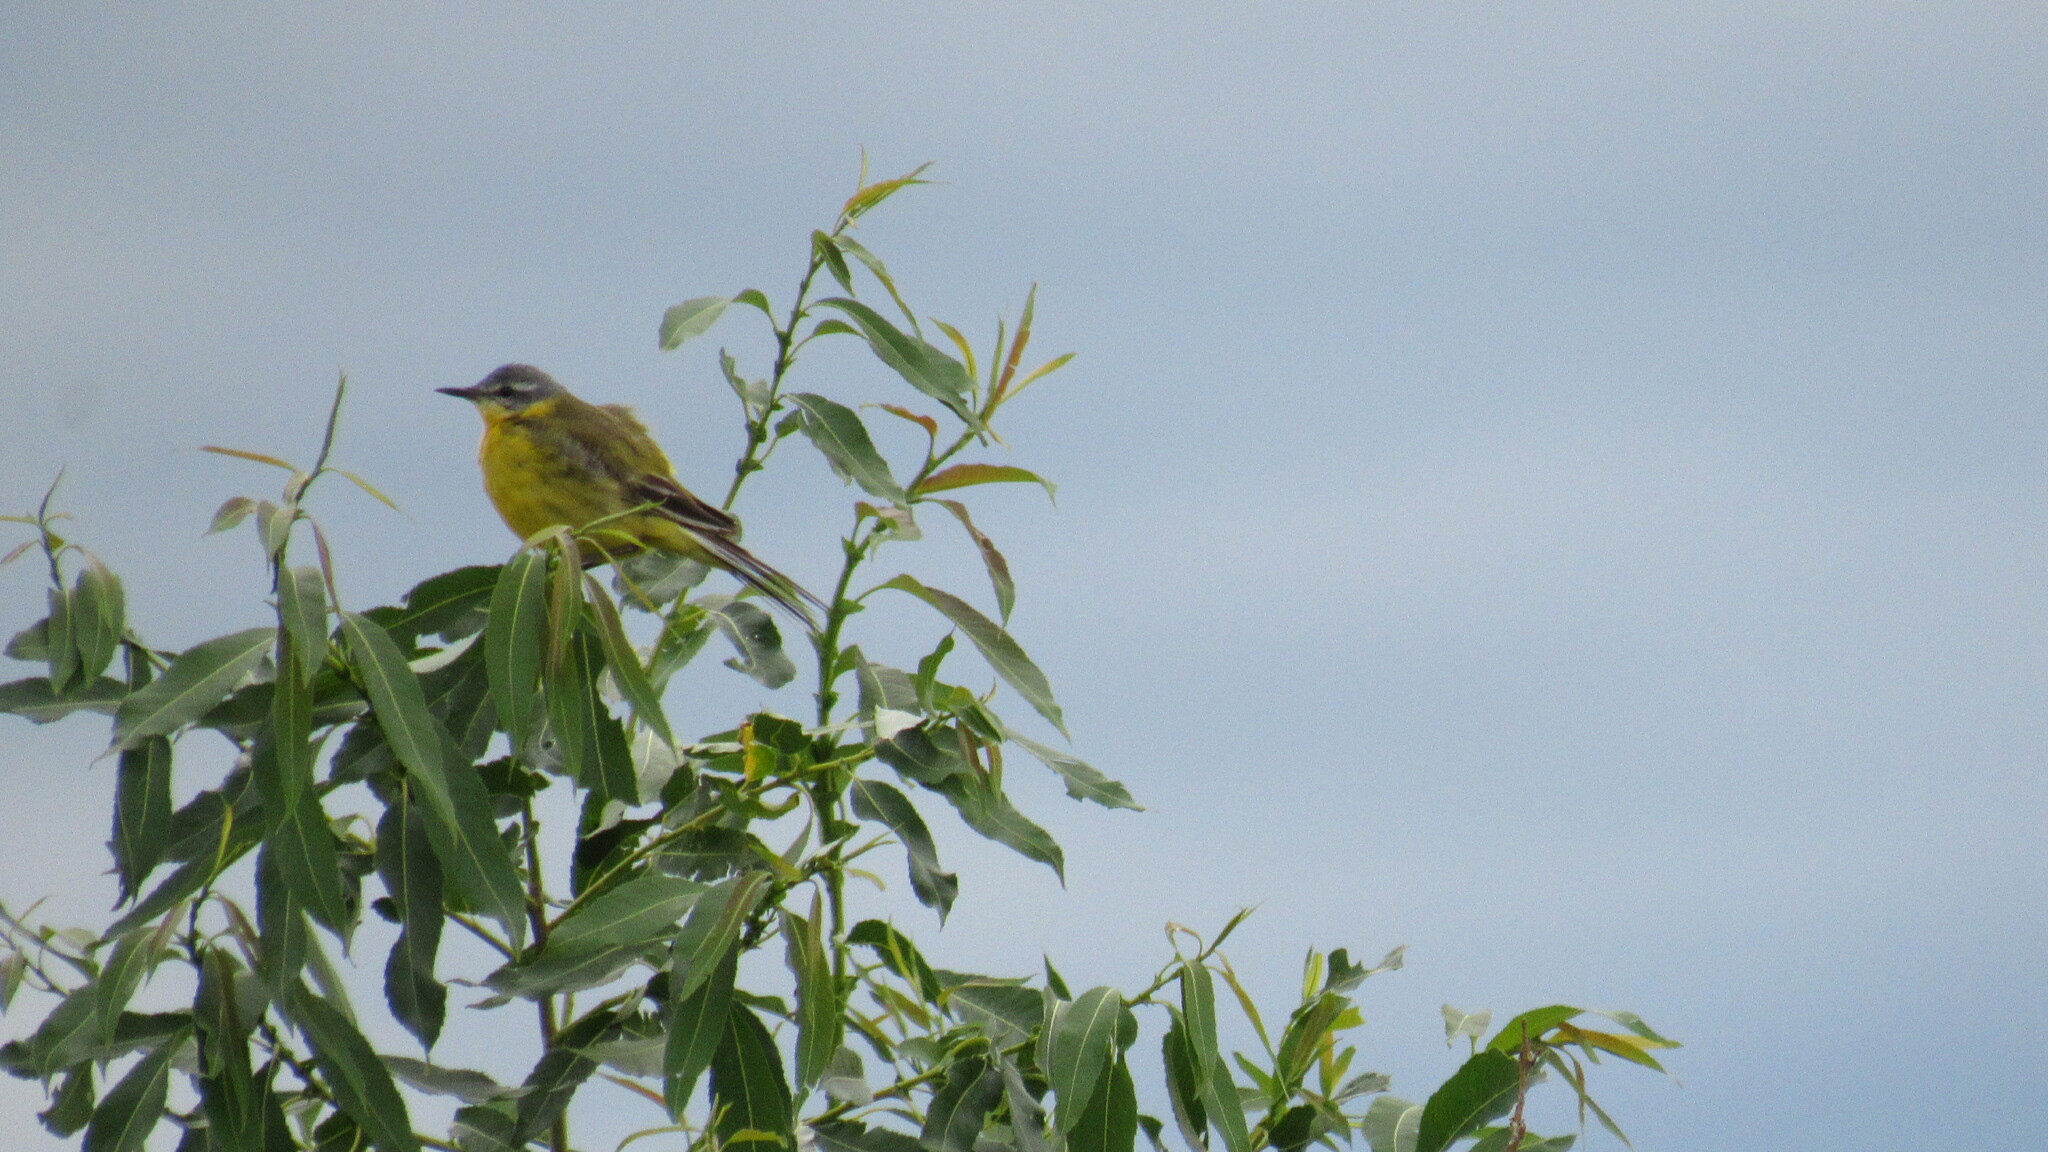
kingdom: Animalia
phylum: Chordata
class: Aves
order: Passeriformes
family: Motacillidae
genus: Motacilla
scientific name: Motacilla flava
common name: Western yellow wagtail
